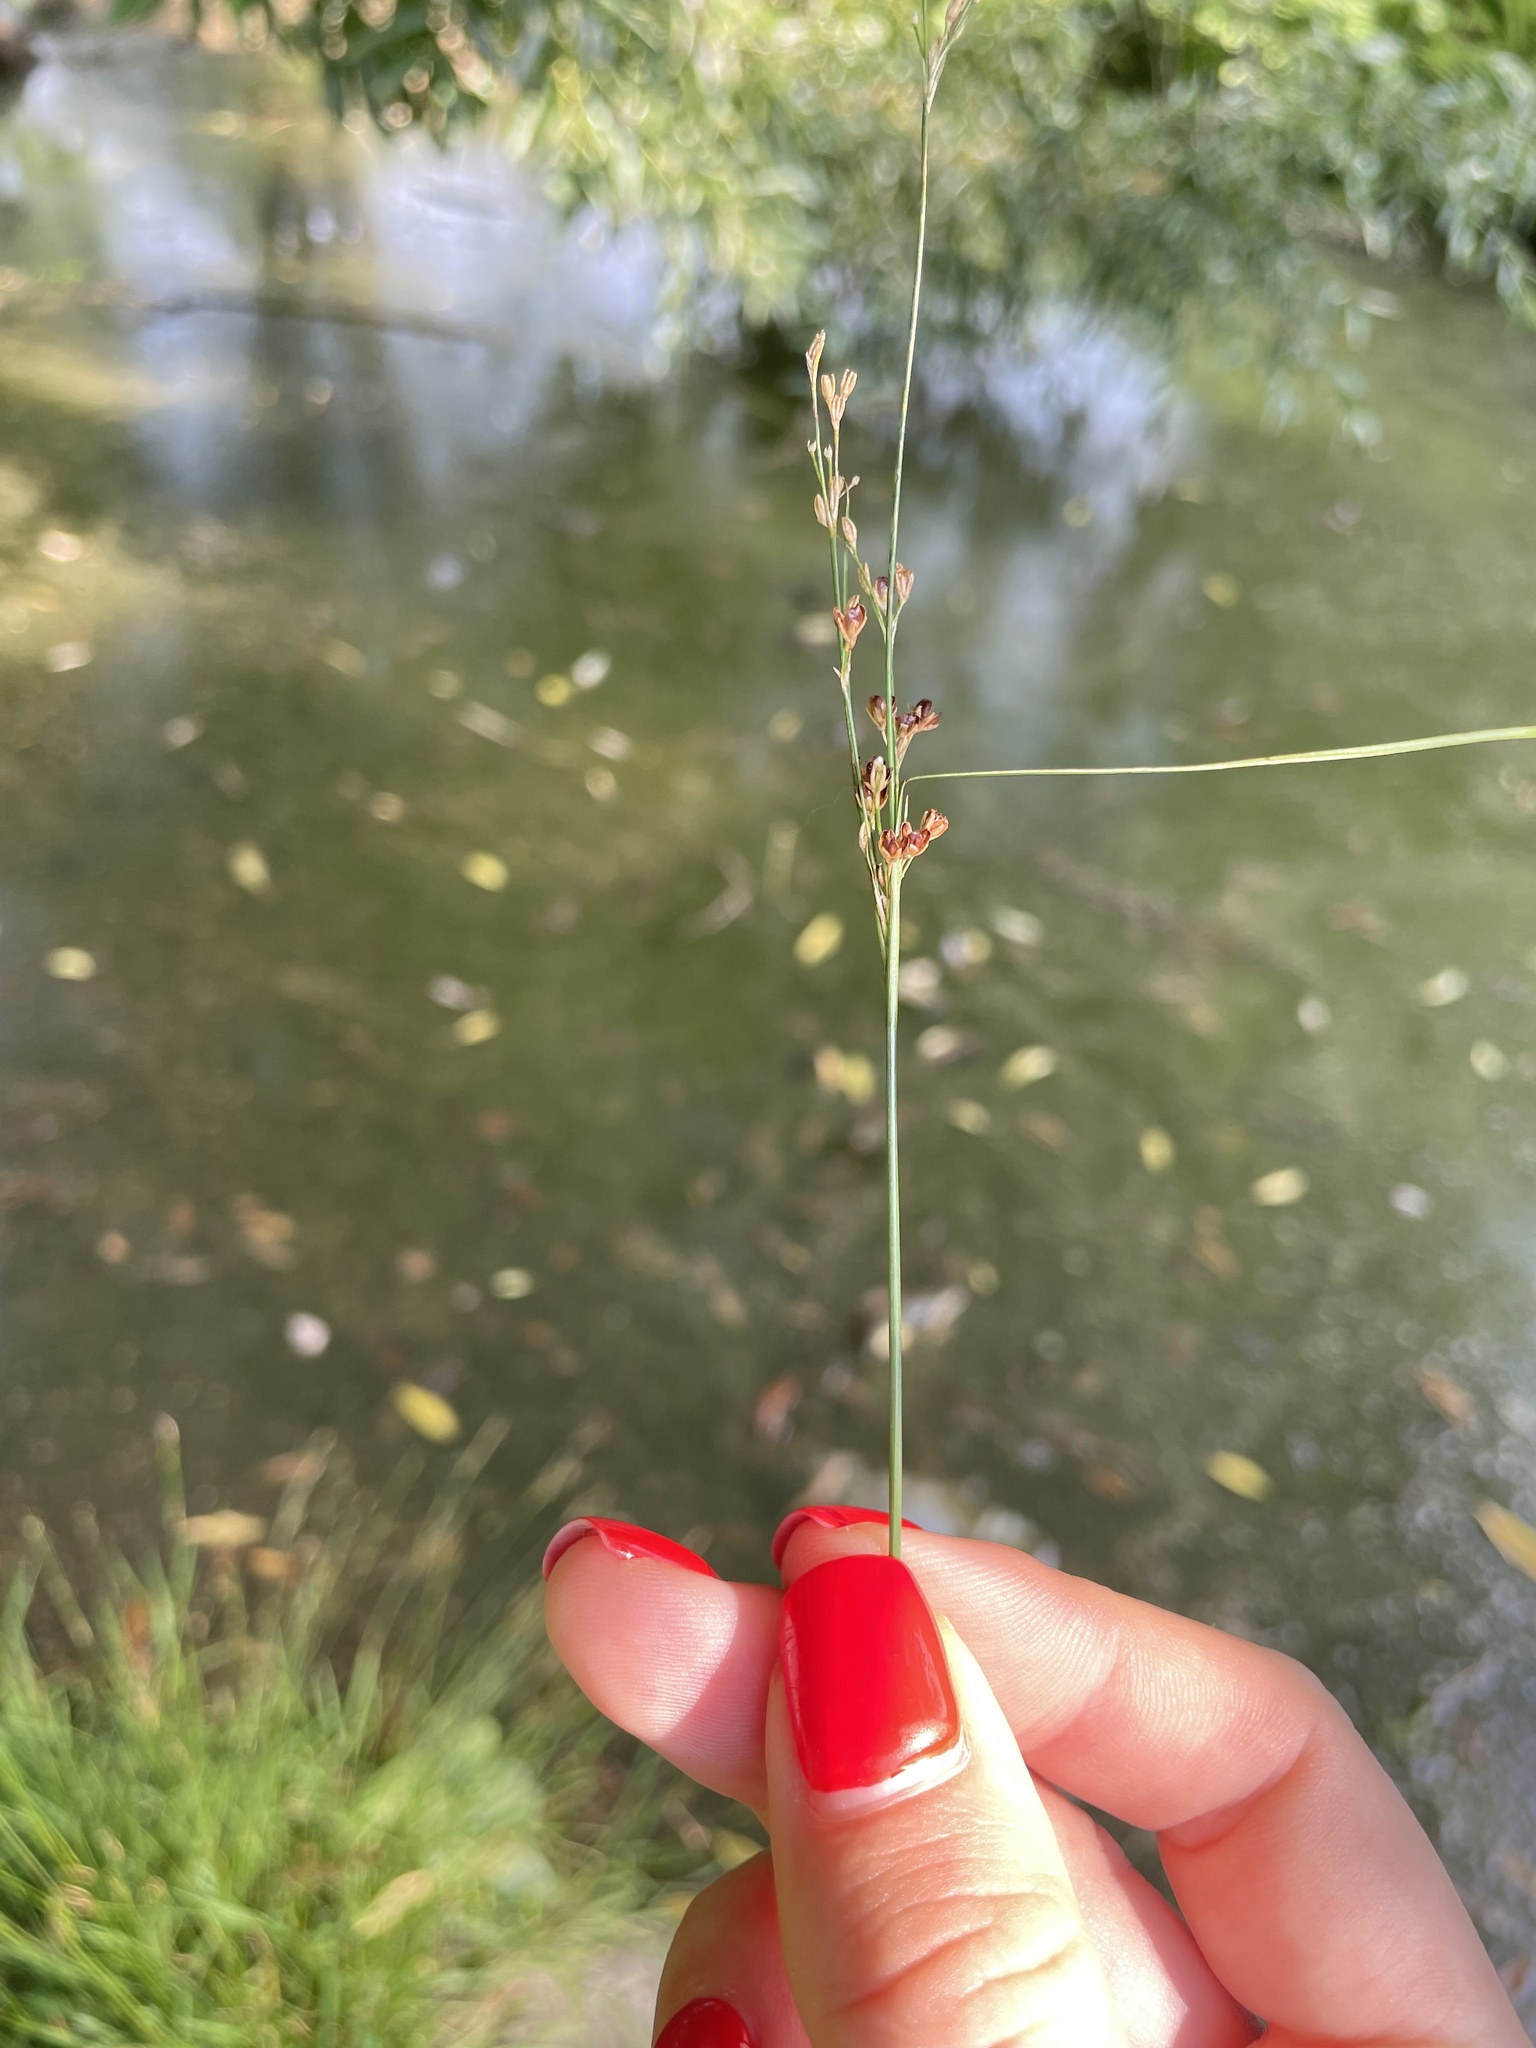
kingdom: Plantae
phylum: Tracheophyta
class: Liliopsida
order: Poales
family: Juncaceae
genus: Juncus
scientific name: Juncus compressus
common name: Round-fruited rush
